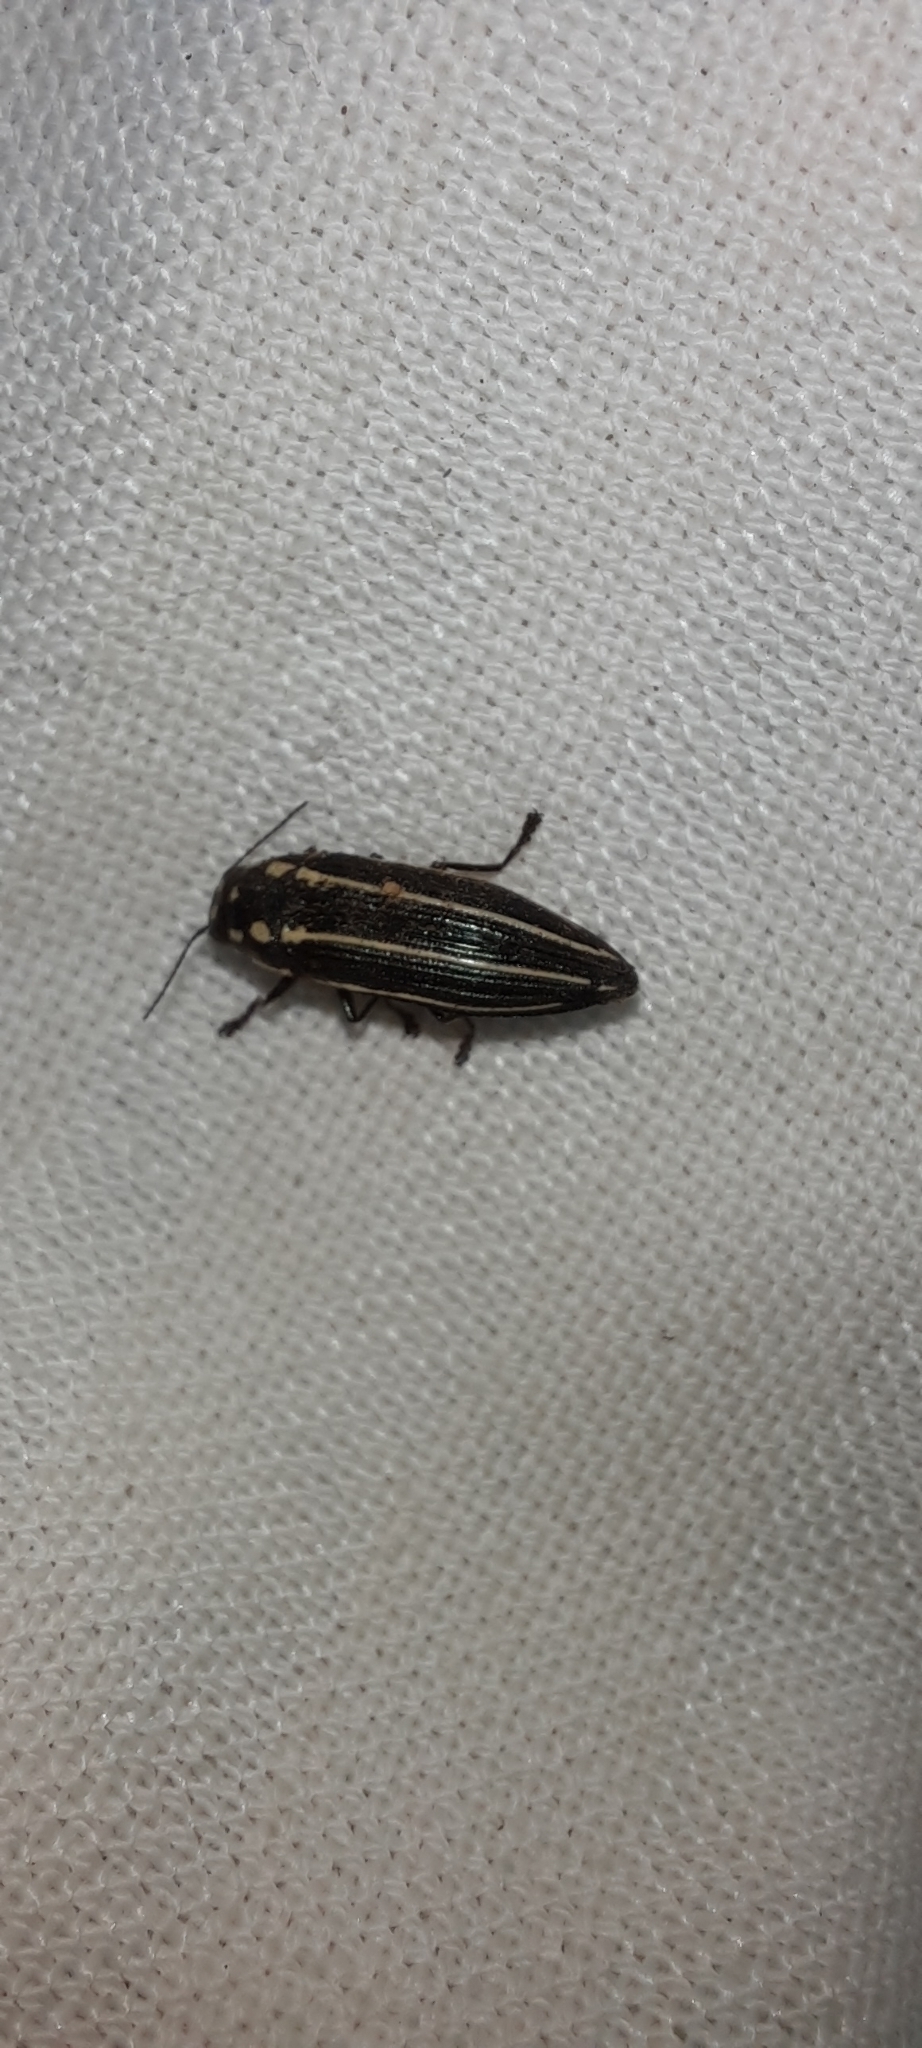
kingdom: Animalia
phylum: Arthropoda
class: Insecta
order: Coleoptera
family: Buprestidae
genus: Bulis
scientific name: Bulis bivittata
